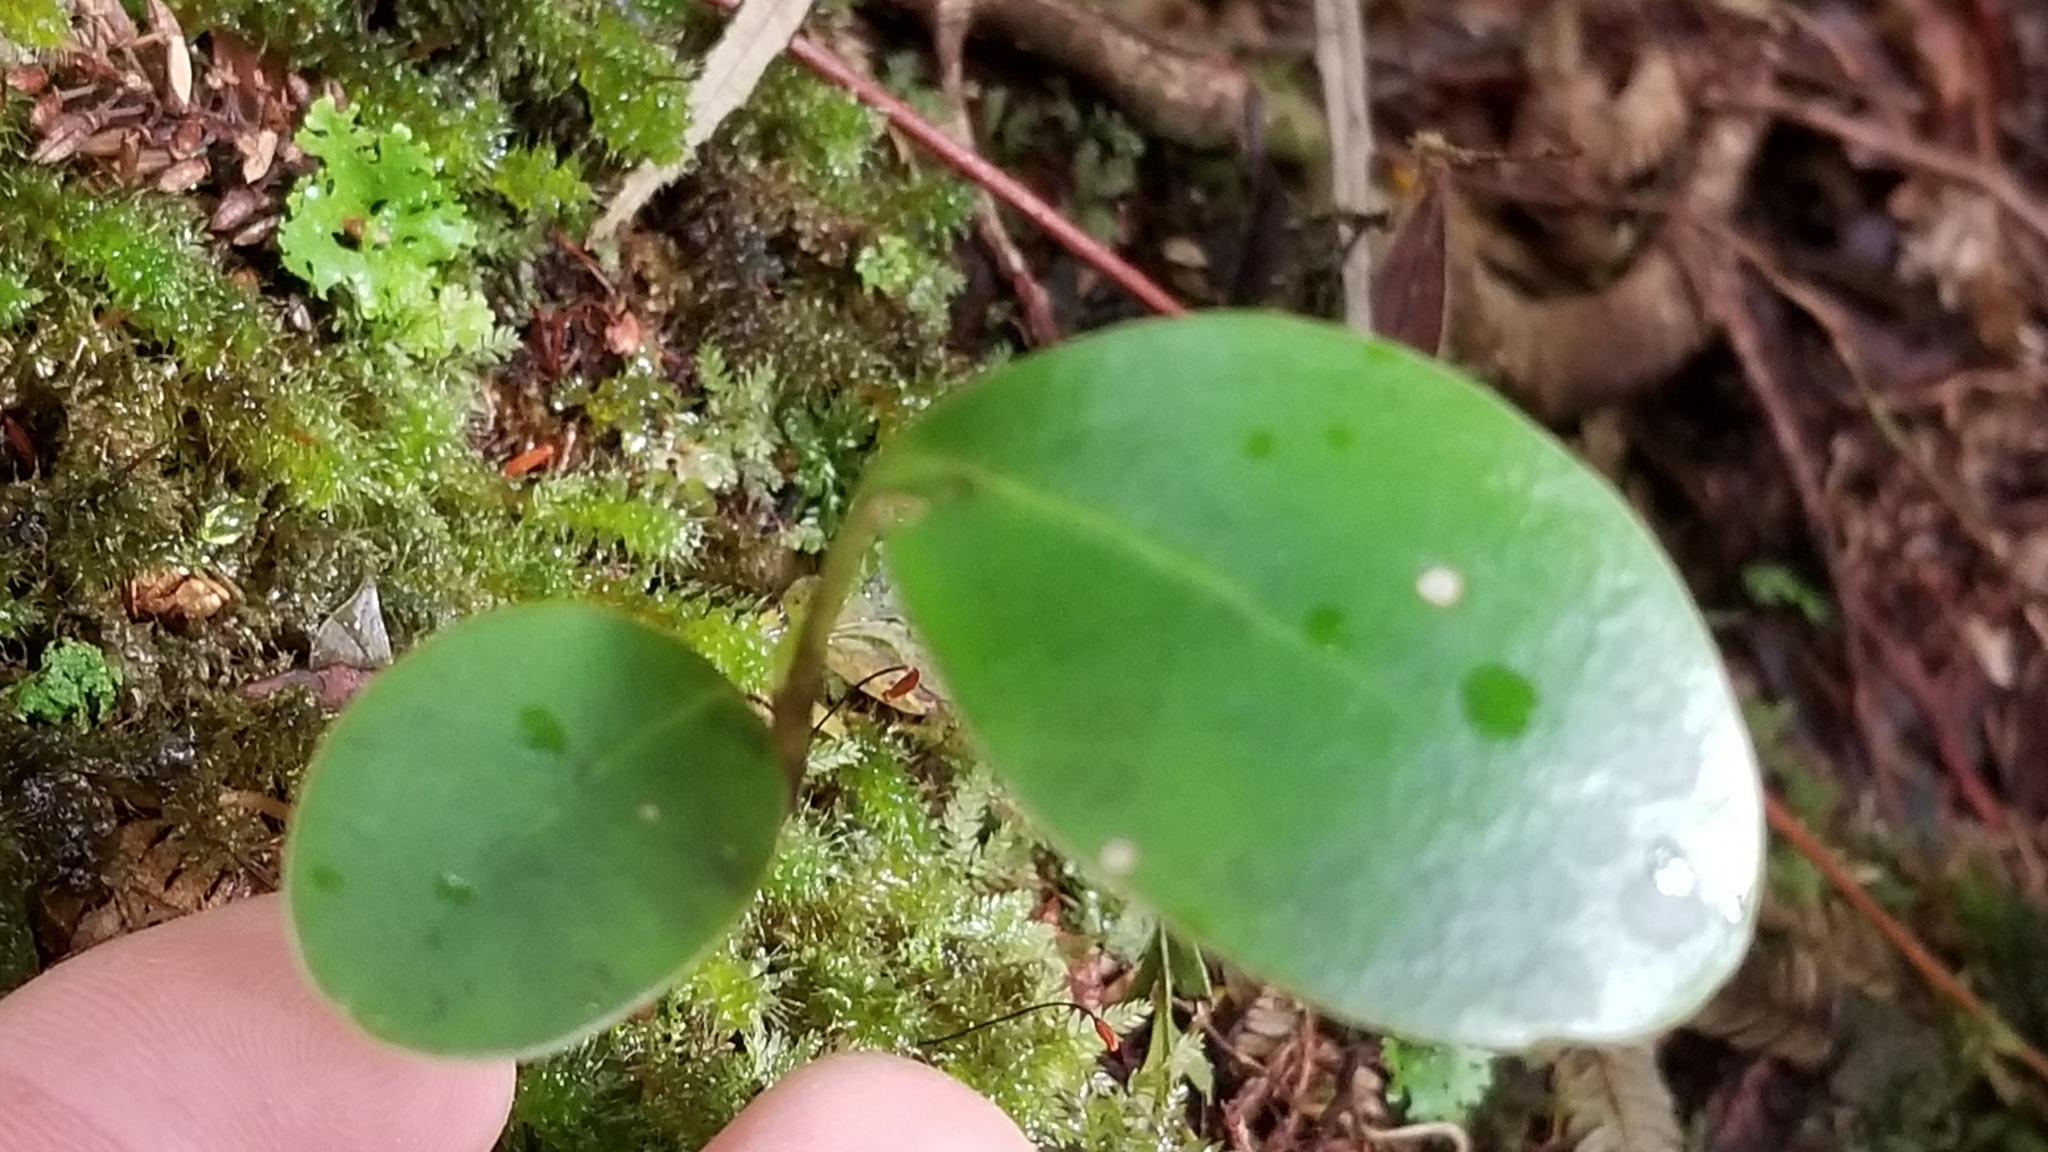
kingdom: Plantae
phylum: Tracheophyta
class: Magnoliopsida
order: Apiales
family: Griseliniaceae
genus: Griselinia
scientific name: Griselinia littoralis
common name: New zealand broadleaf
